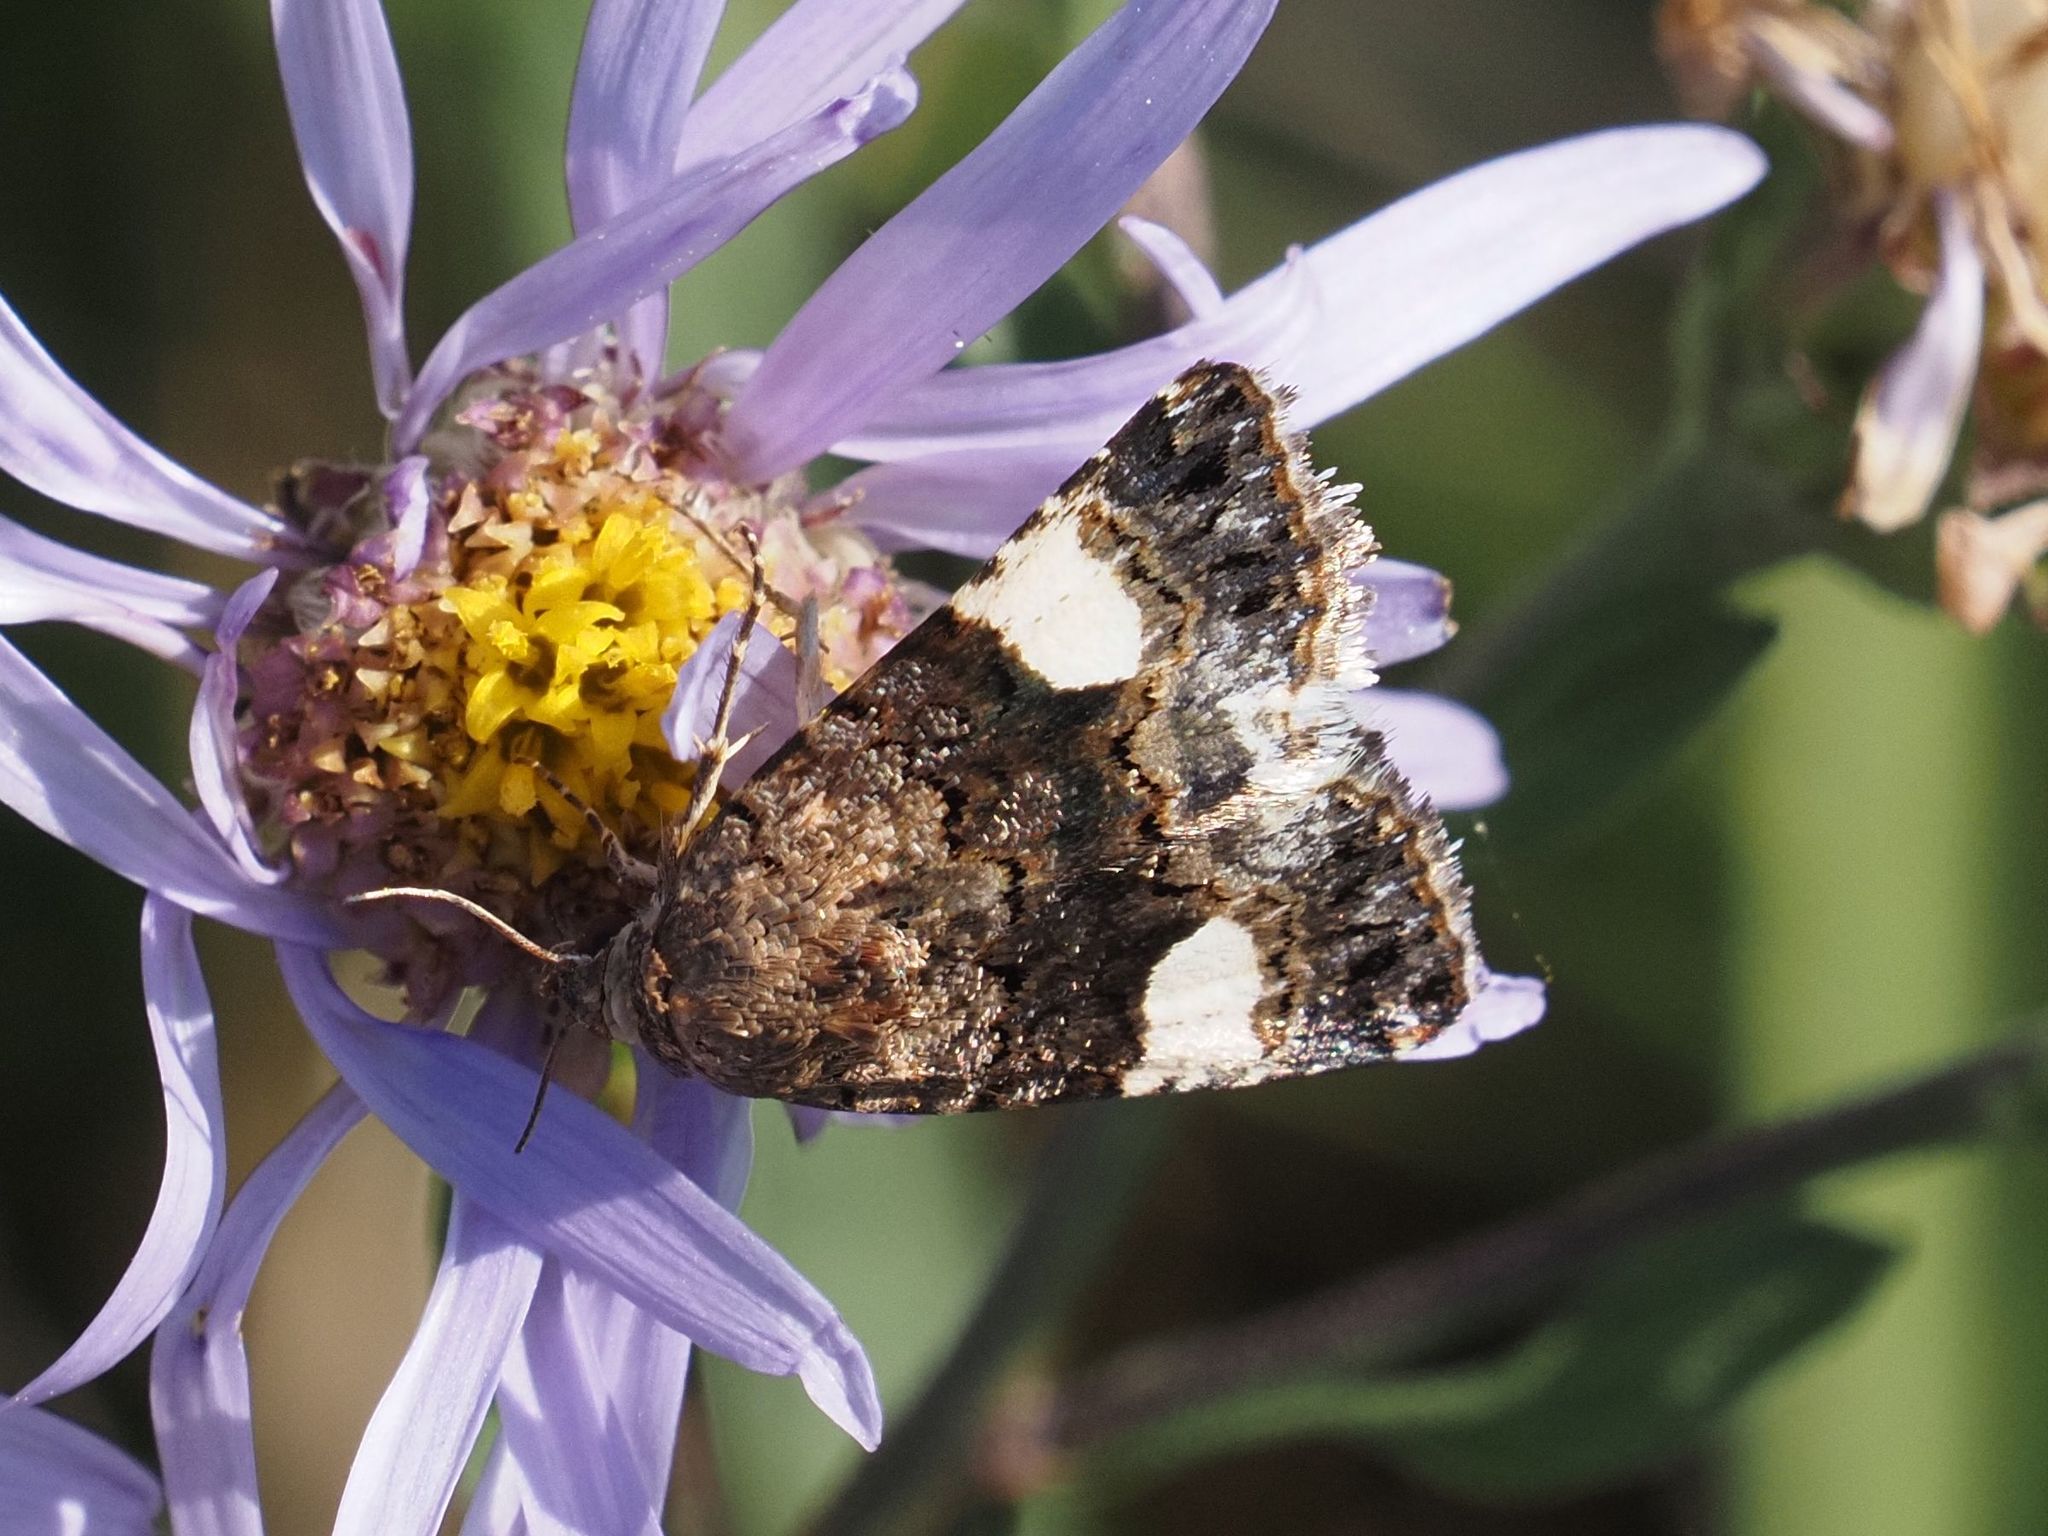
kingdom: Animalia
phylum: Arthropoda
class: Insecta
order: Lepidoptera
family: Erebidae
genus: Tyta
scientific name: Tyta luctuosa
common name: Four-spotted
